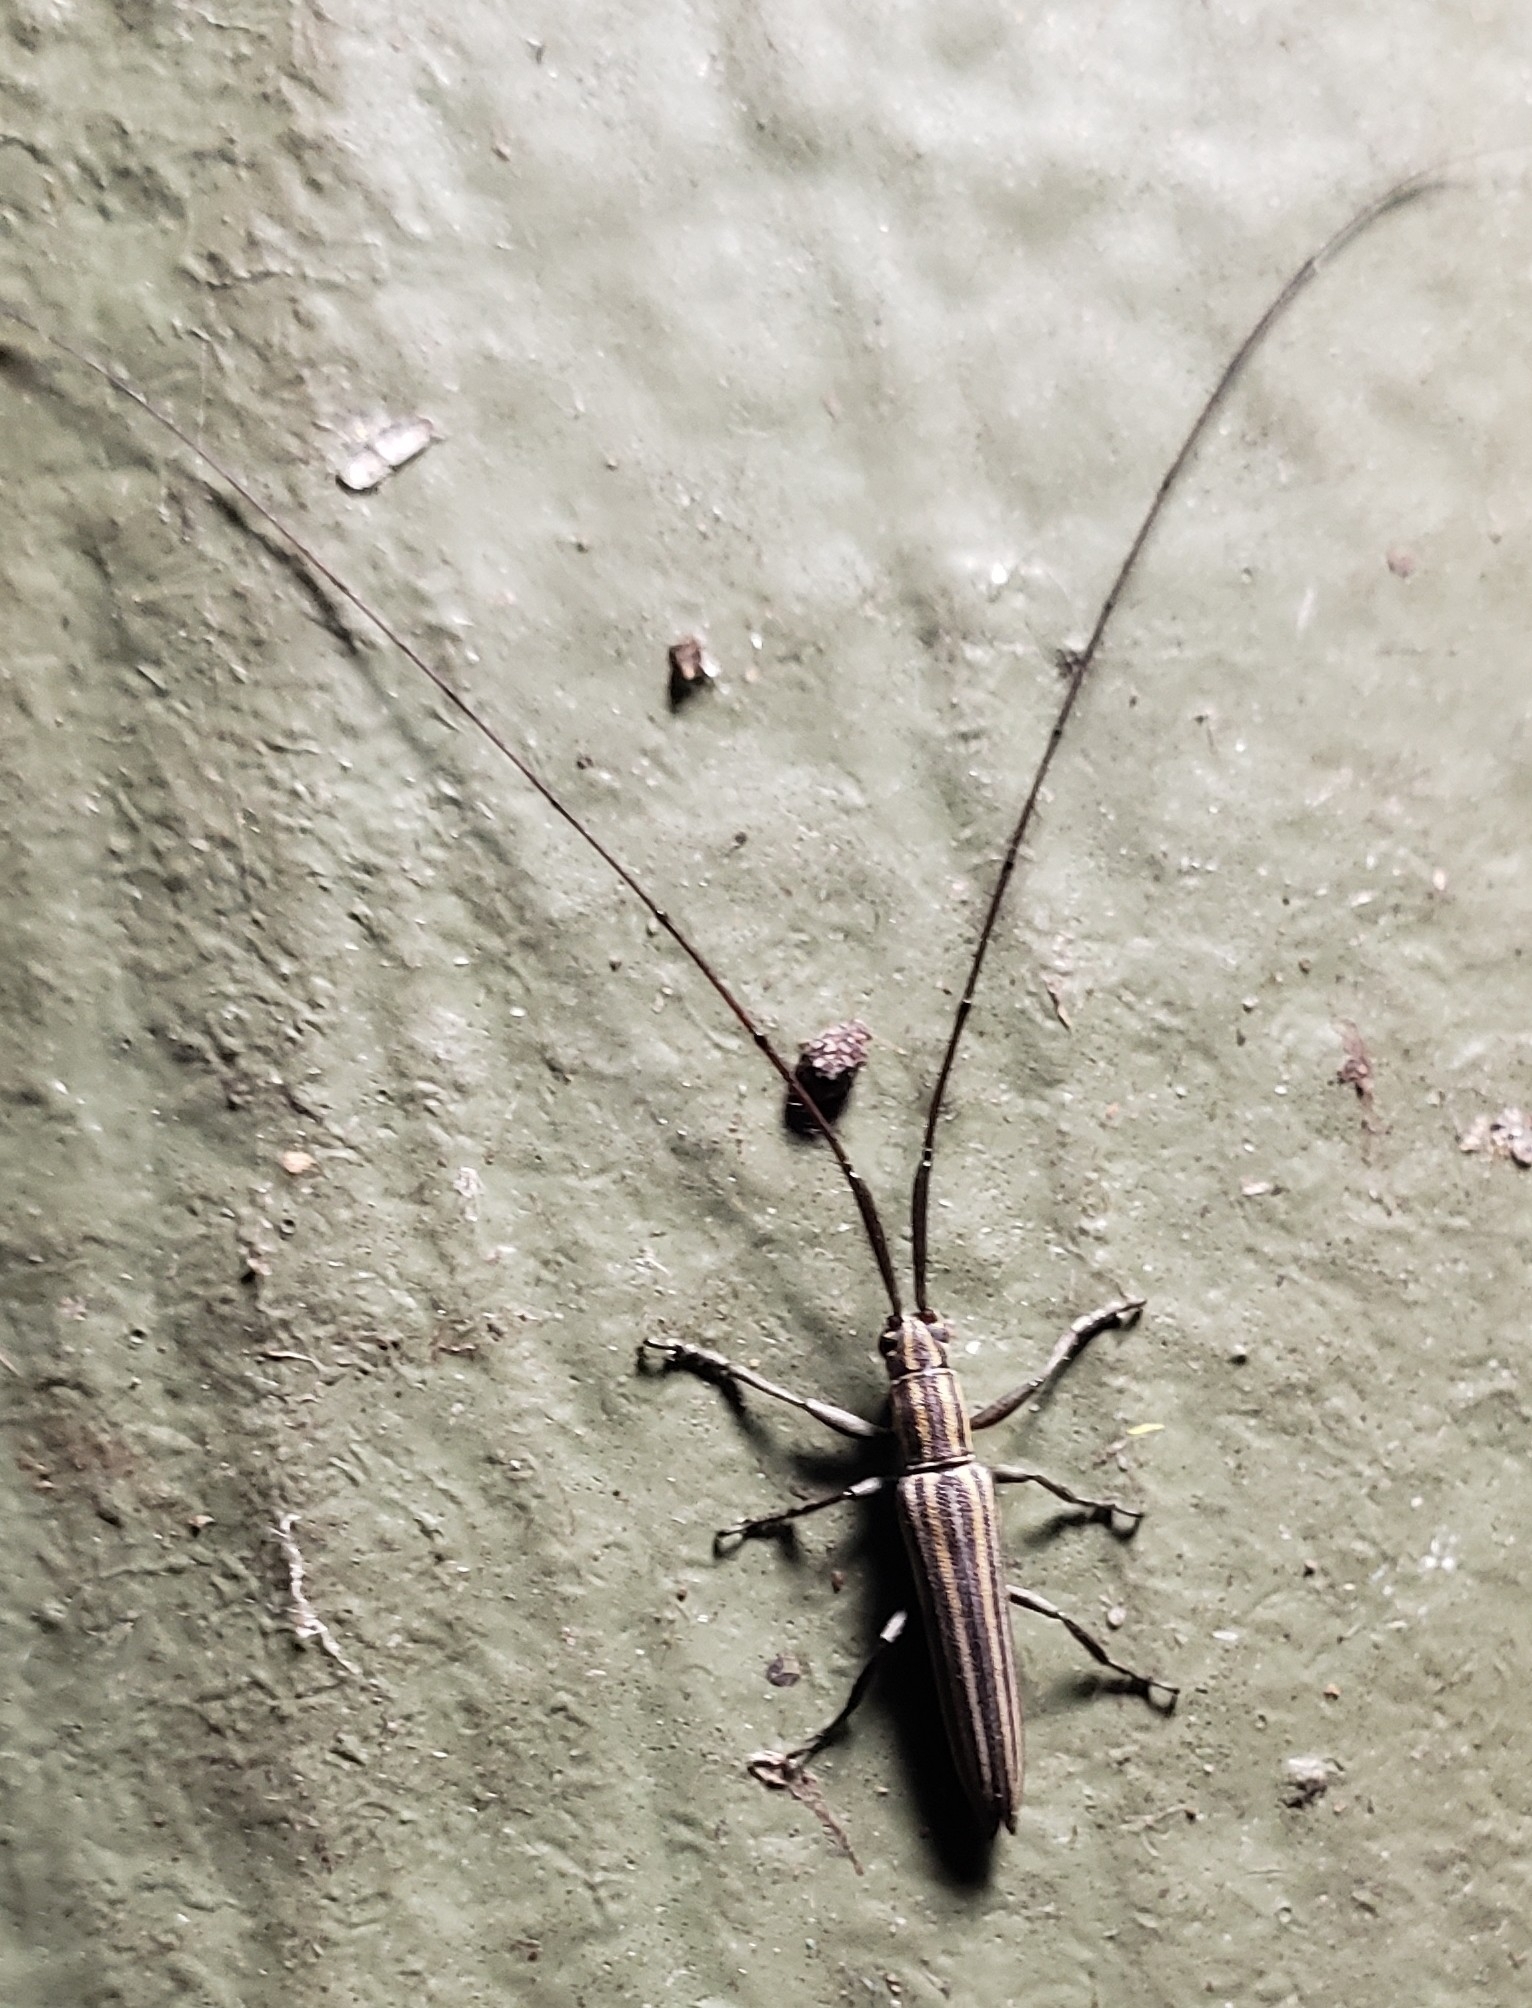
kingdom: Animalia
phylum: Arthropoda
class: Insecta
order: Coleoptera
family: Cerambycidae
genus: Hippopsis
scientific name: Hippopsis
